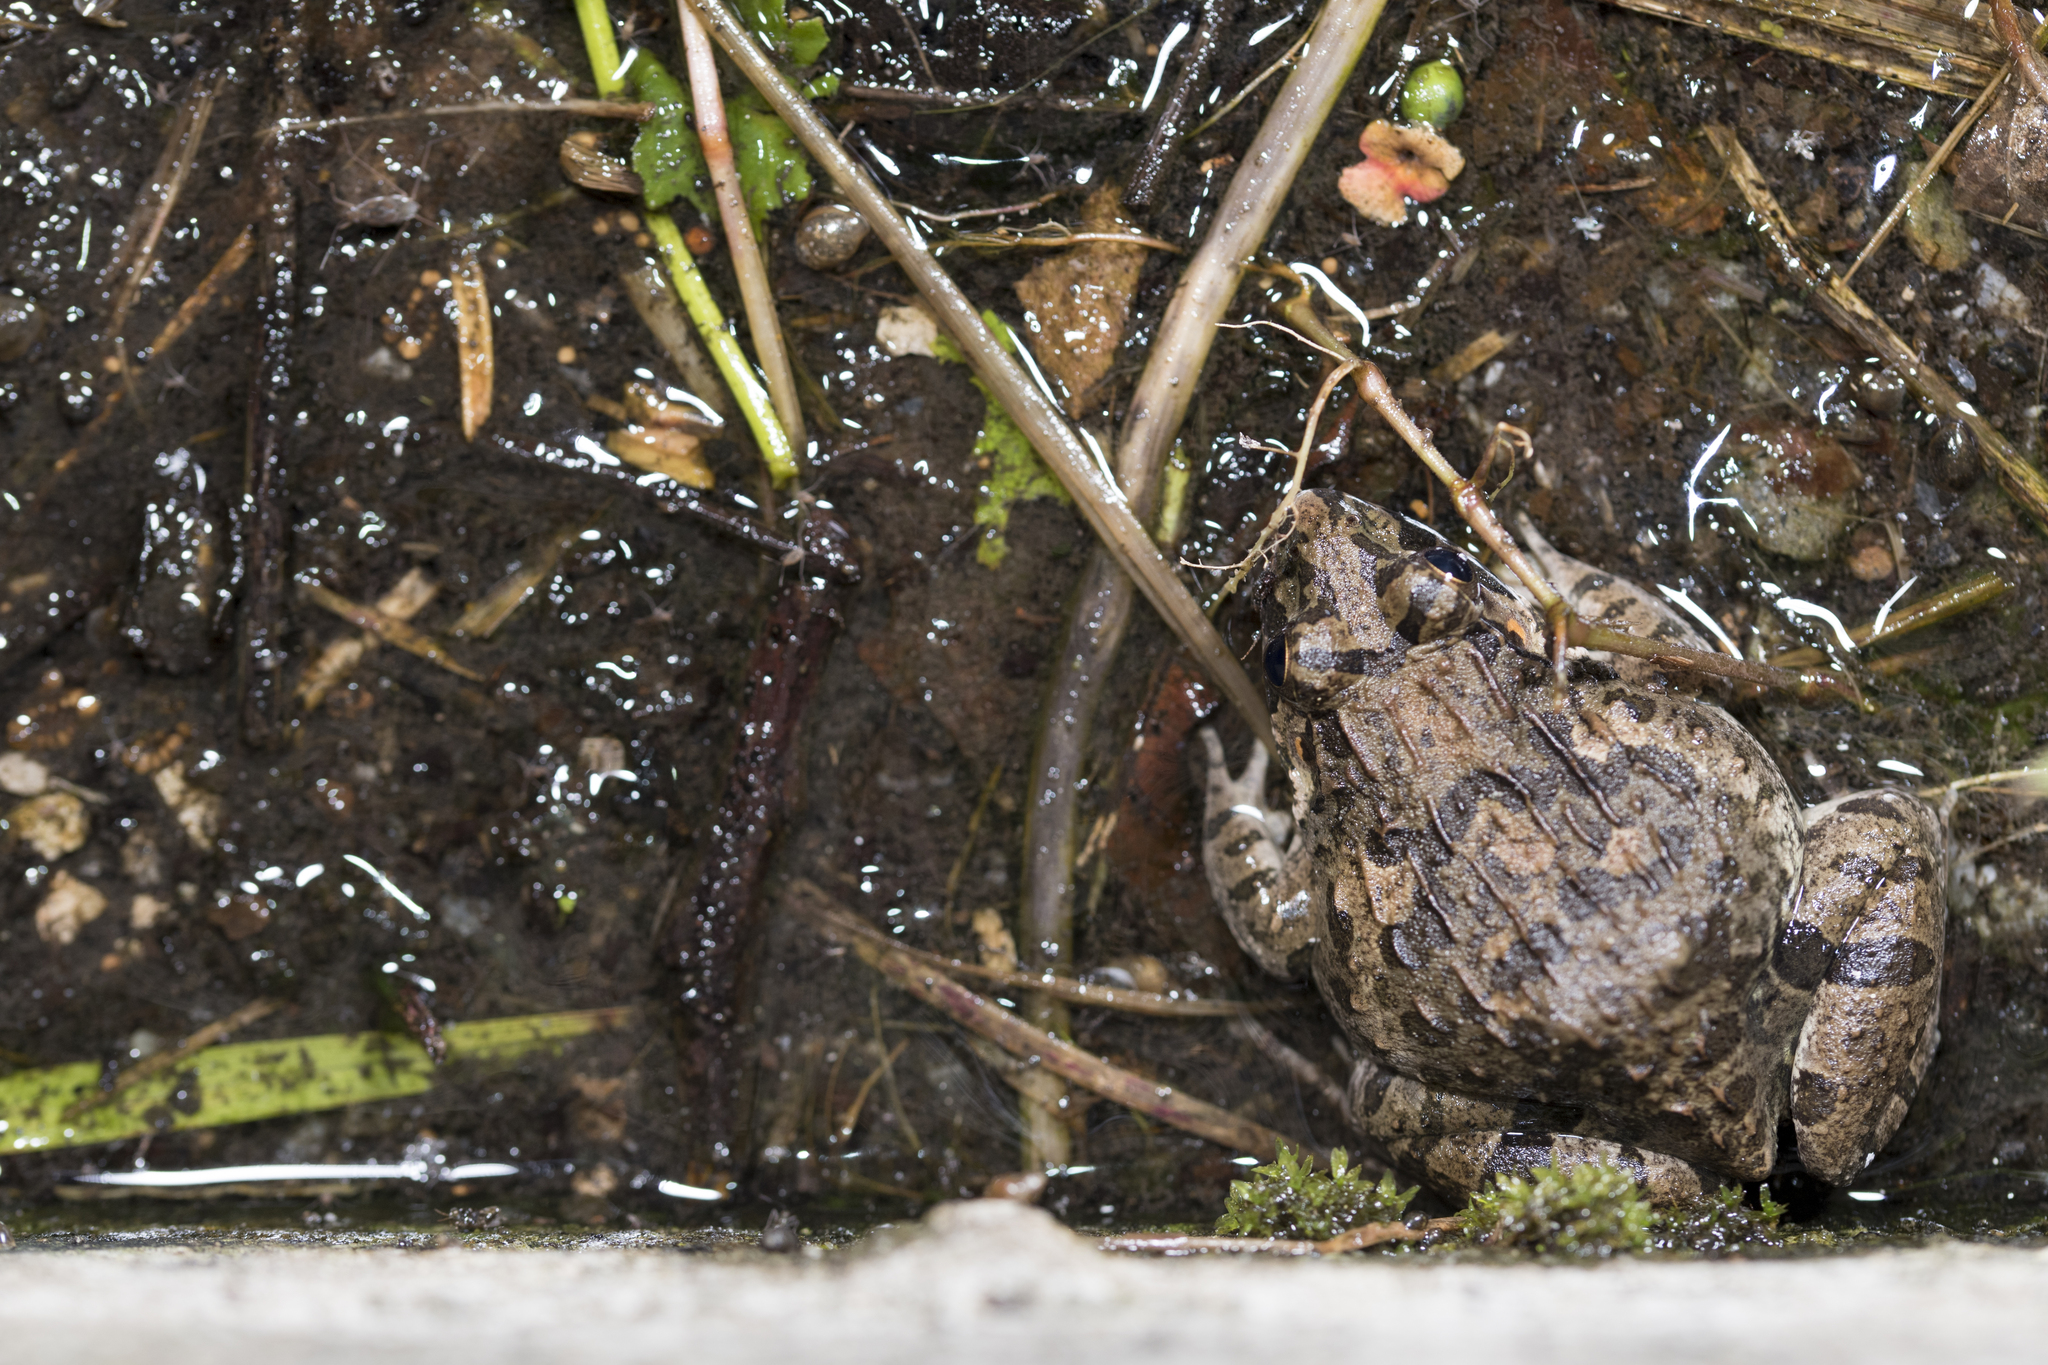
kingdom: Animalia
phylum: Chordata
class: Amphibia
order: Anura
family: Dicroglossidae
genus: Fejervarya
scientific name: Fejervarya limnocharis
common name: Asian grass frog/common pond frog/field frog/grass frog/indian rice frog
